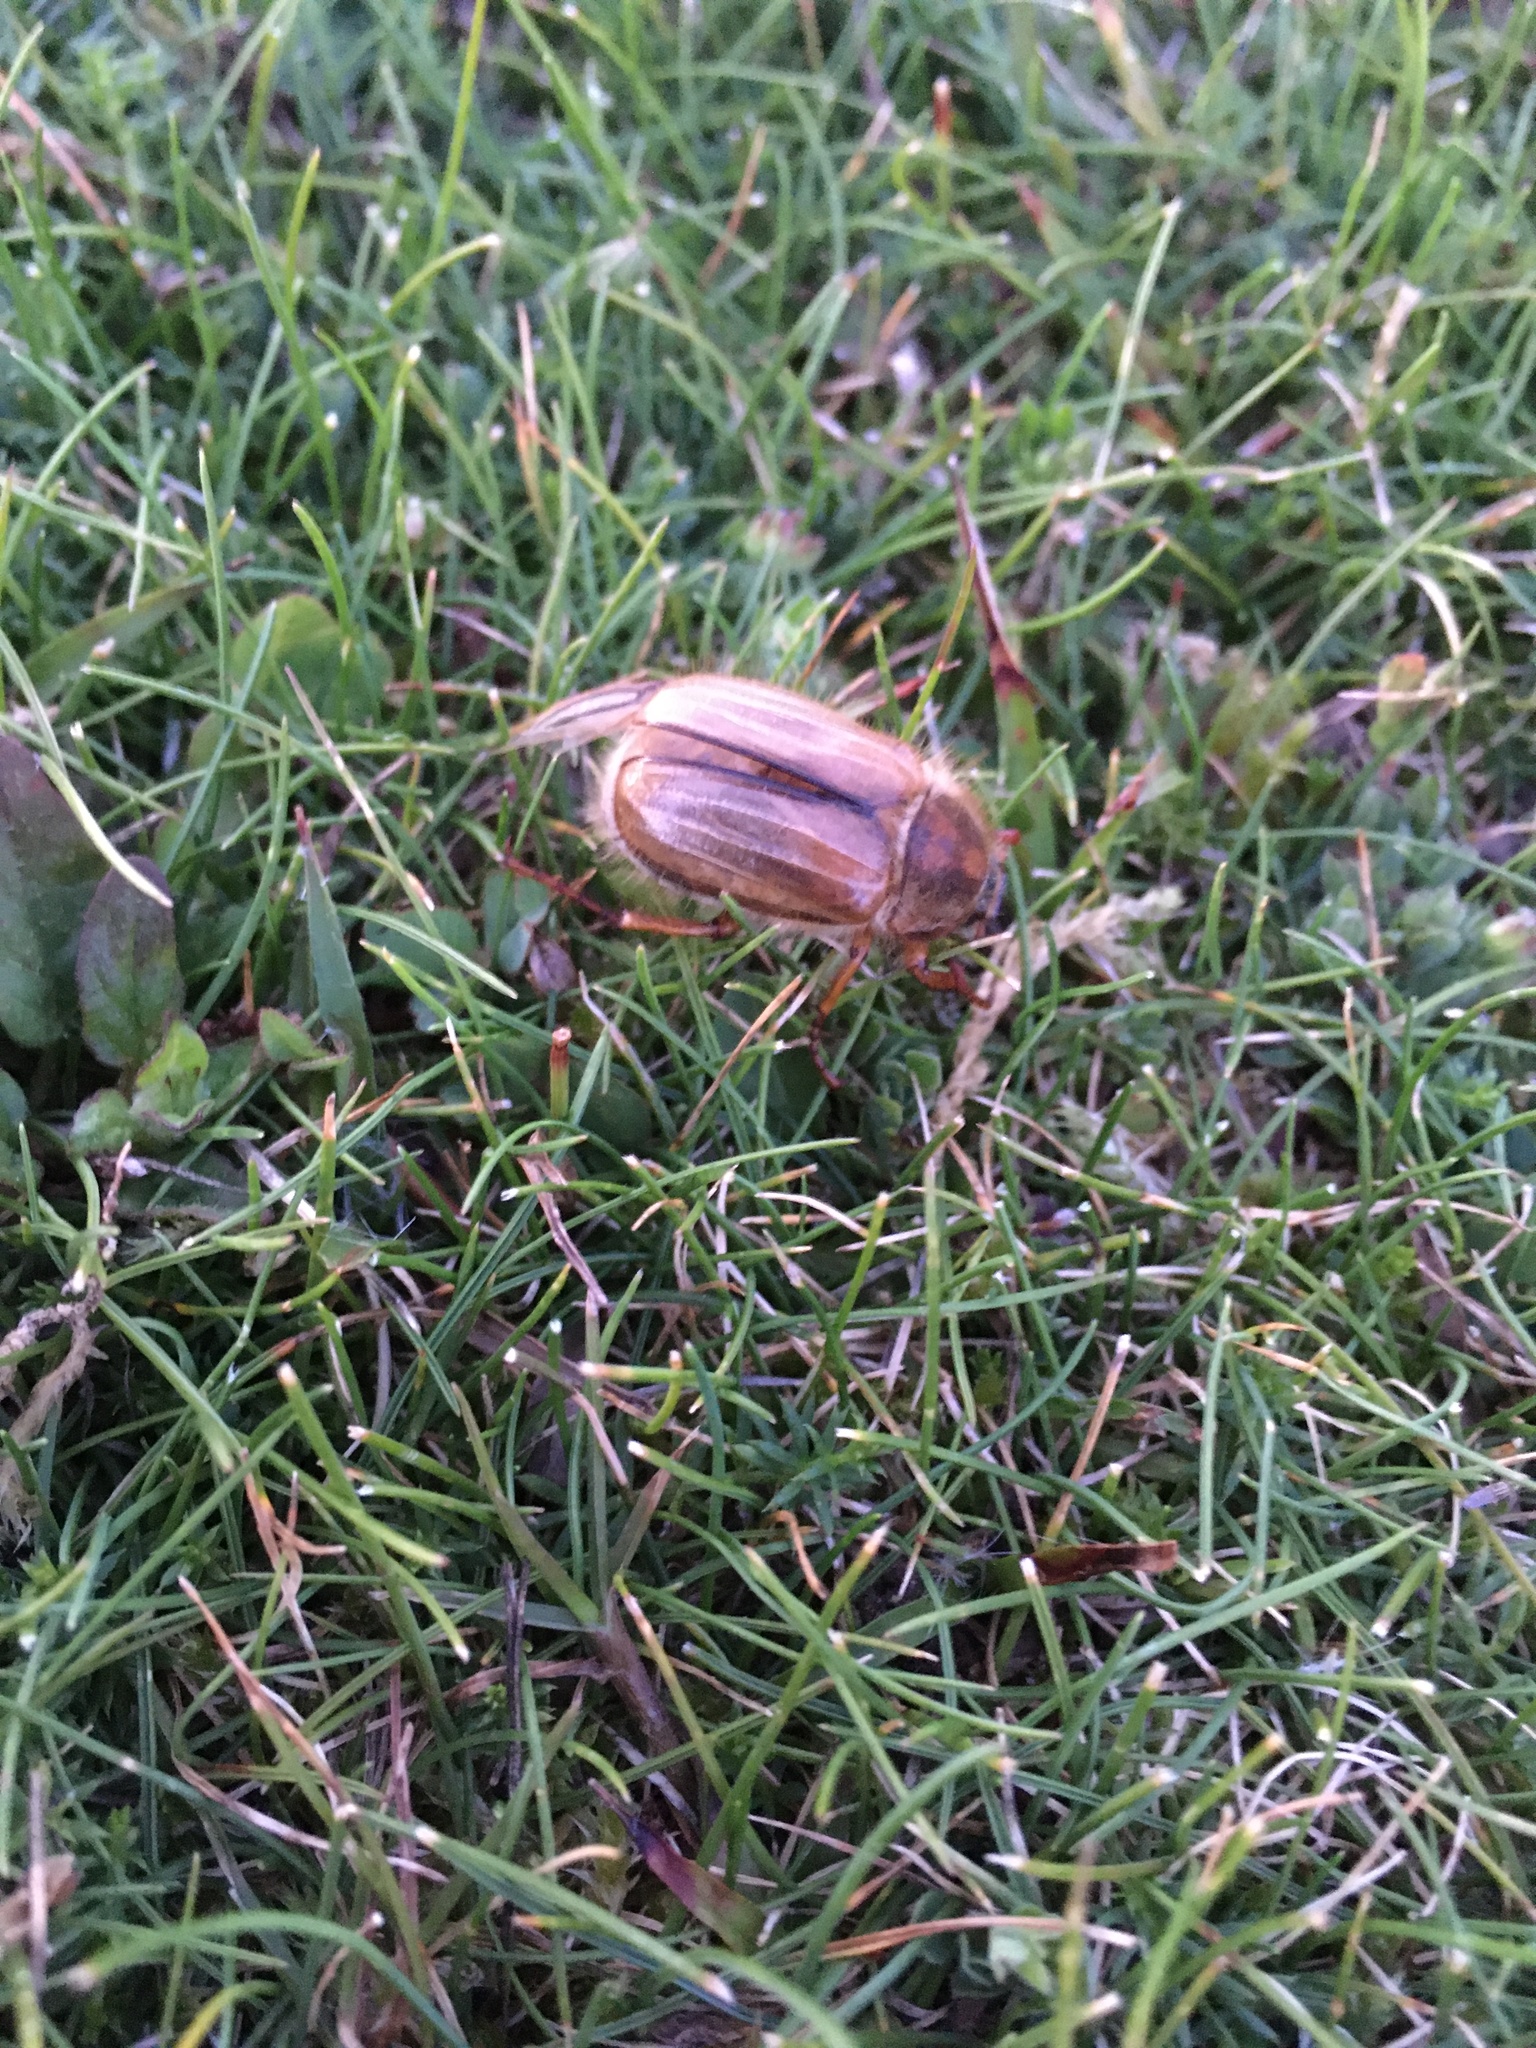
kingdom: Animalia
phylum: Arthropoda
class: Insecta
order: Coleoptera
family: Scarabaeidae
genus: Amphimallon
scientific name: Amphimallon solstitiale
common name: Summer chafer
